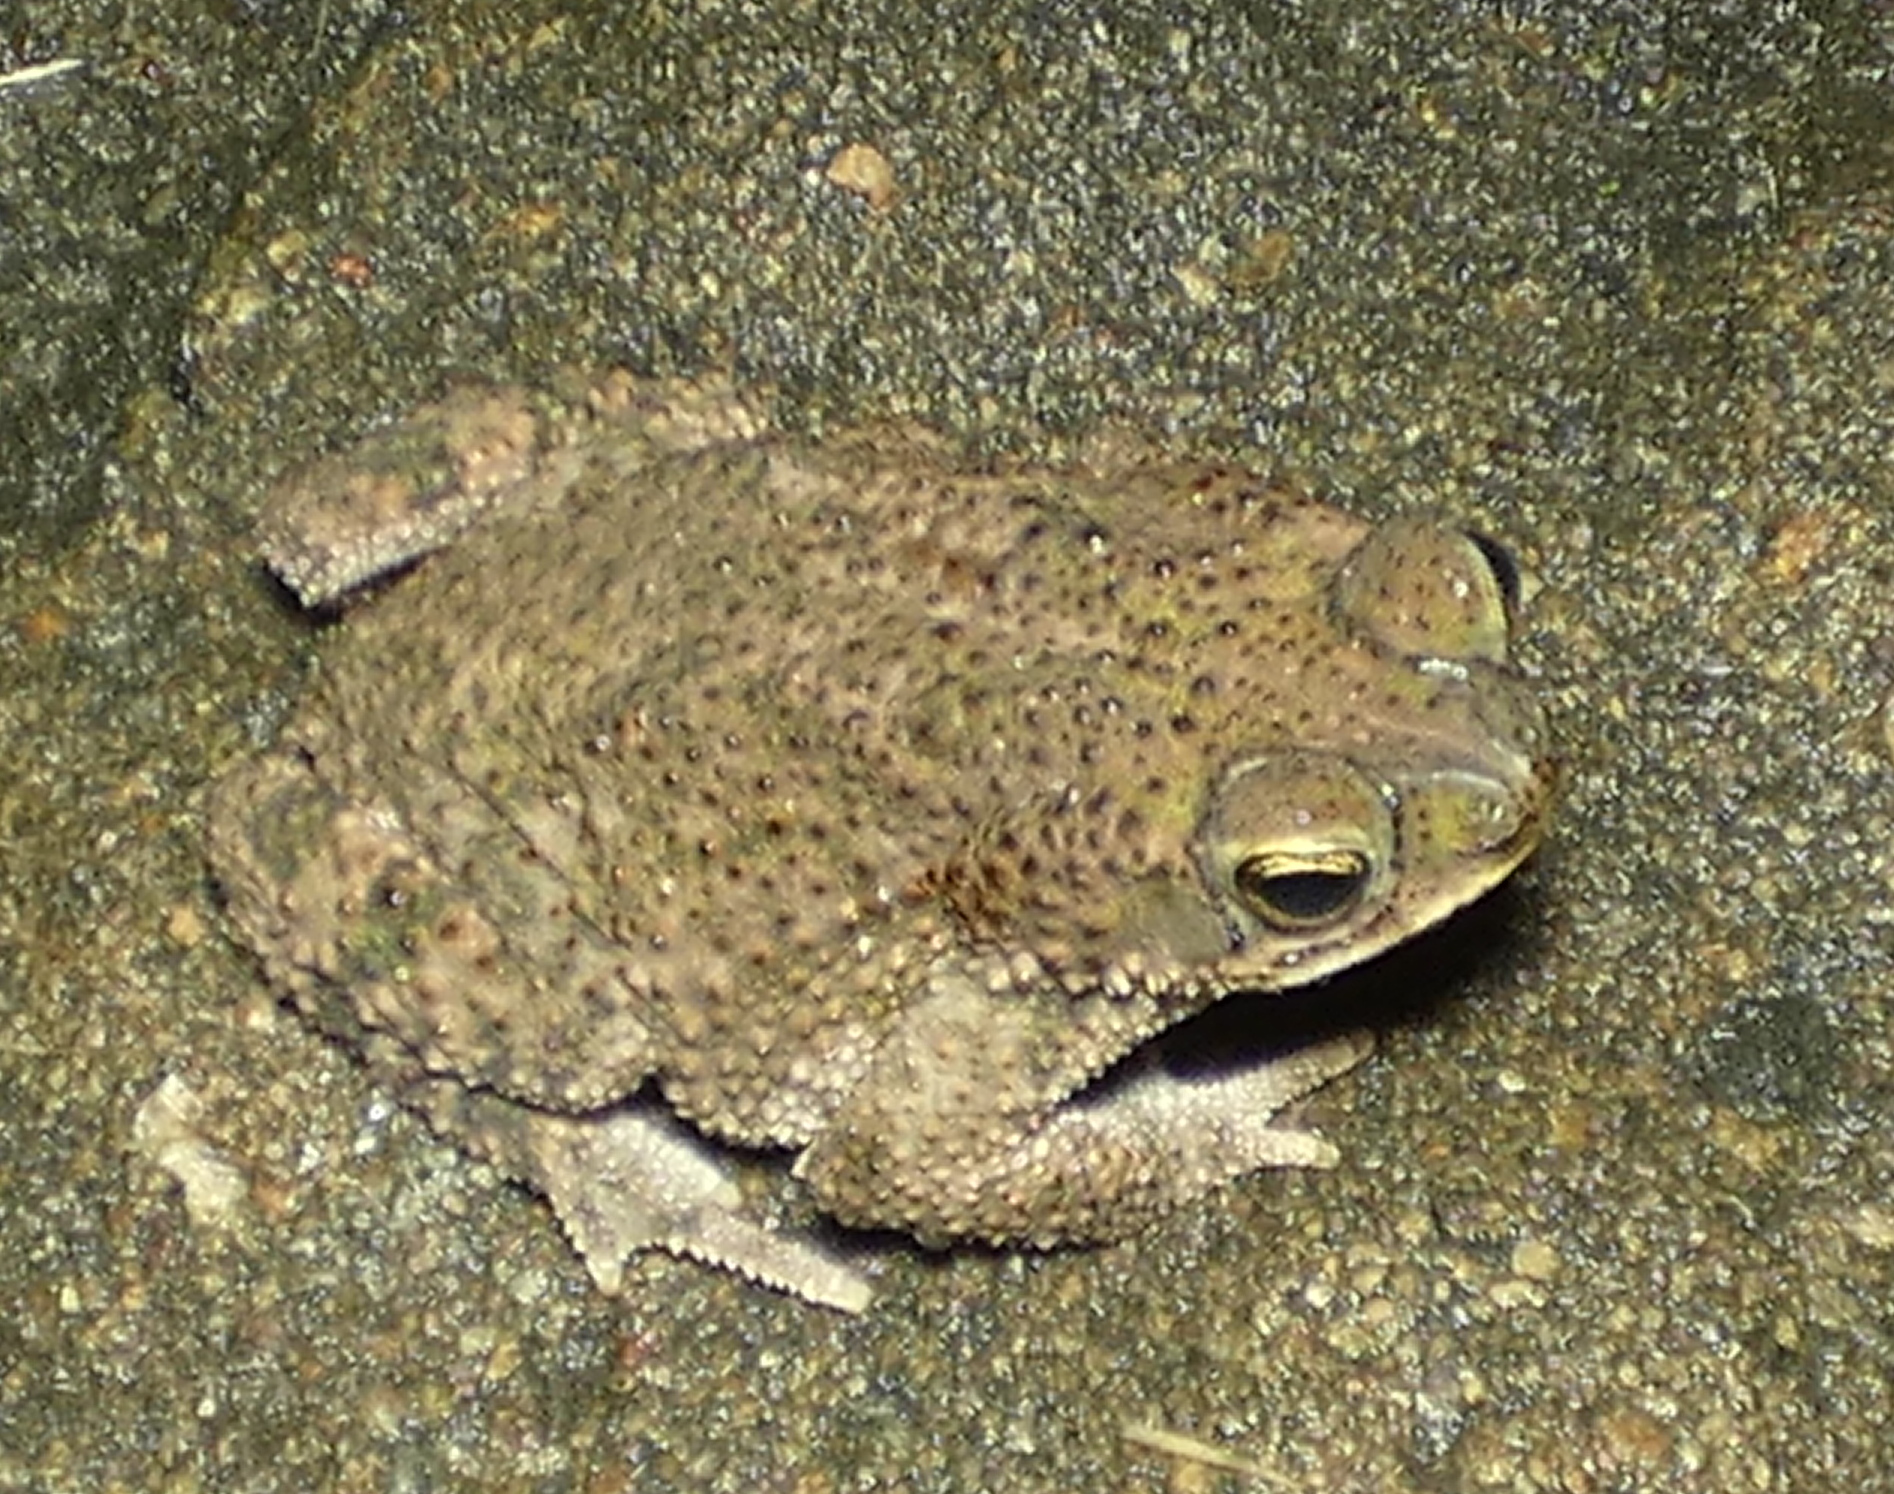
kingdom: Animalia
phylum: Chordata
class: Amphibia
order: Anura
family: Bufonidae
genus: Rhinella
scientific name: Rhinella granulosa
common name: Common lesser toad
